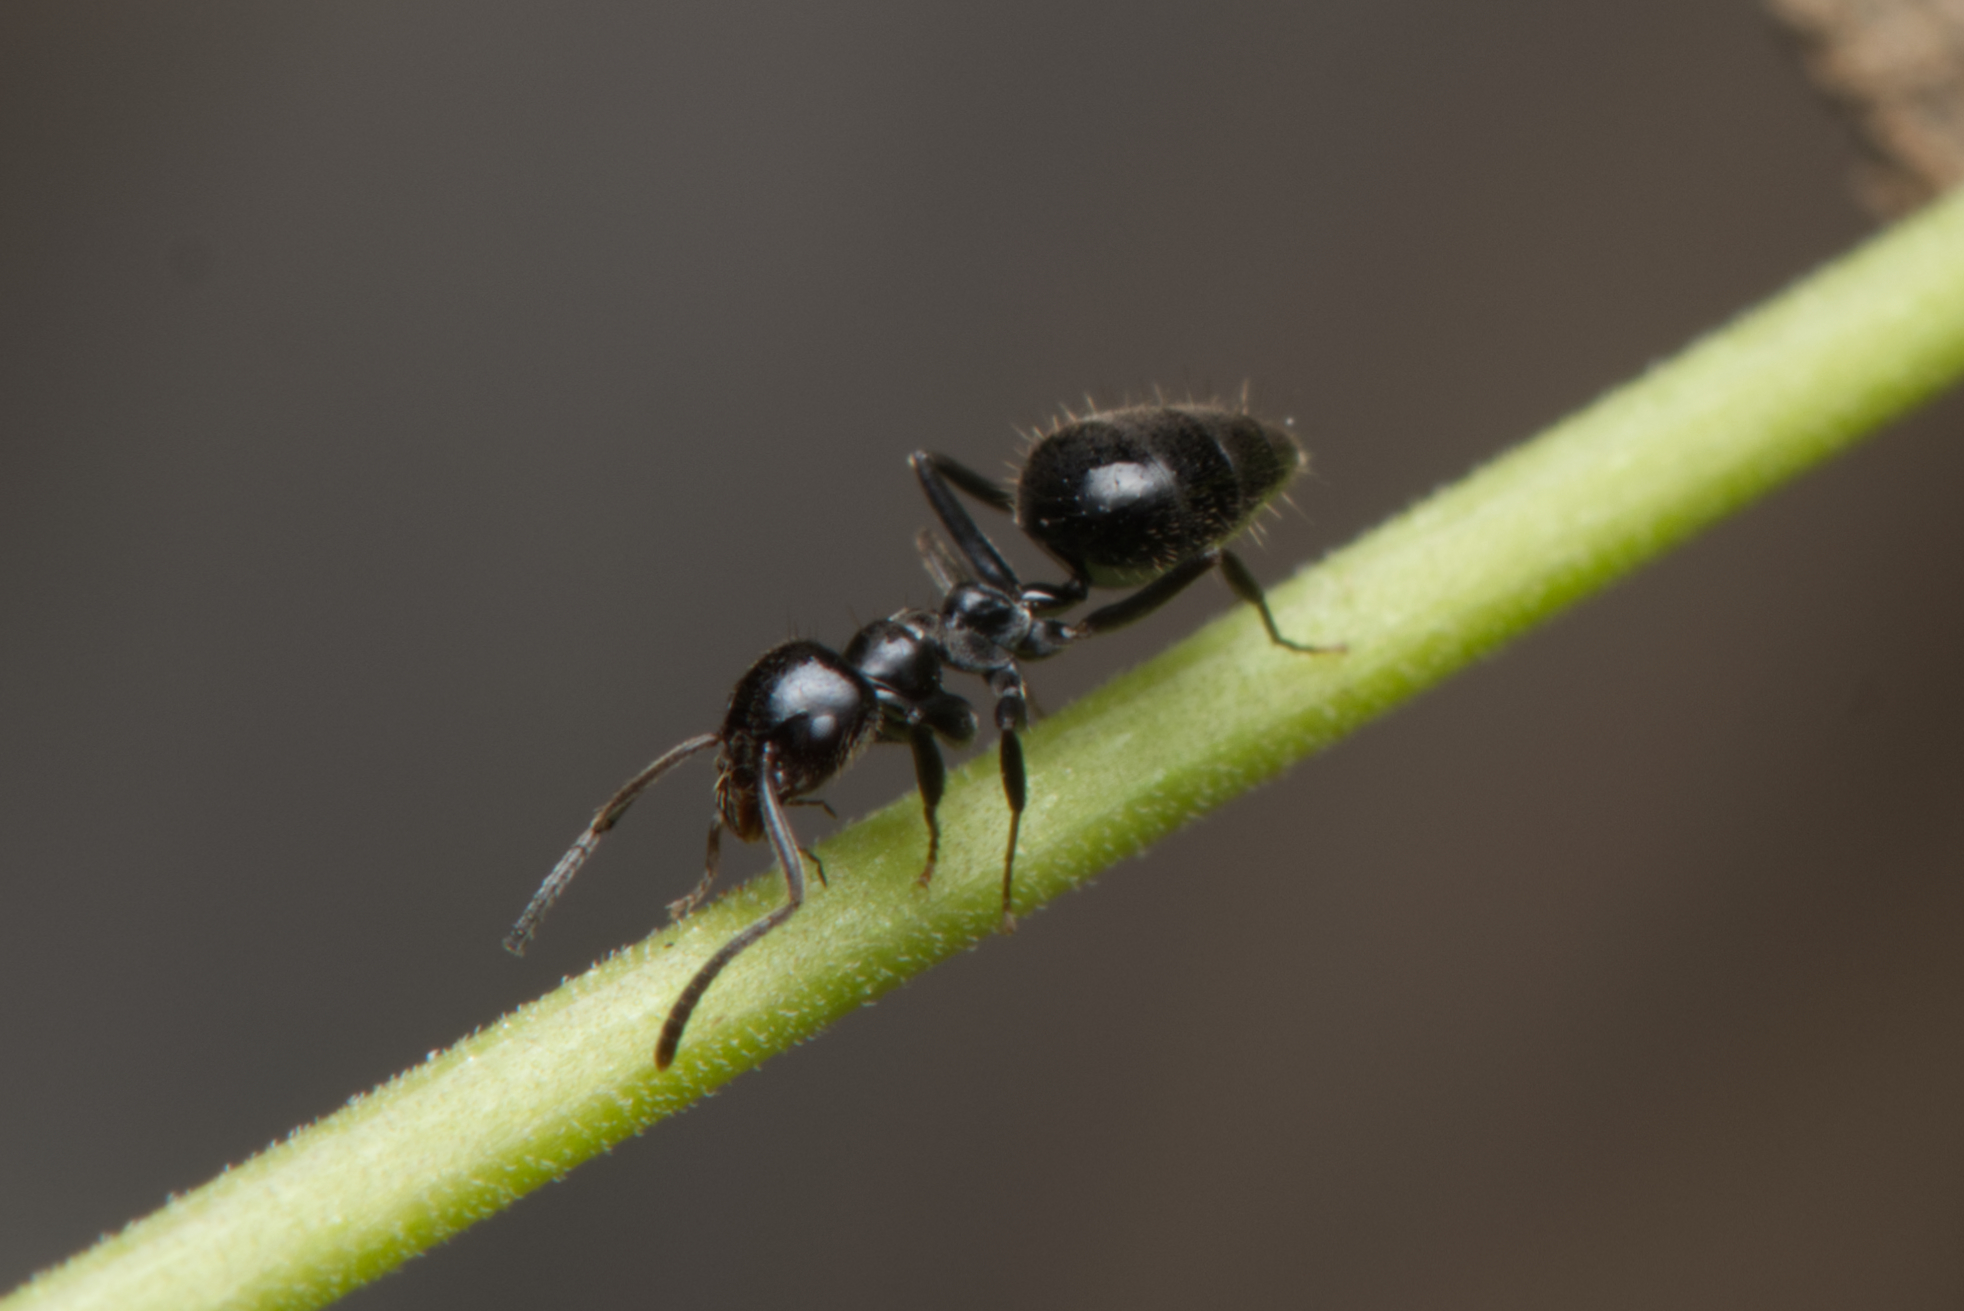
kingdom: Animalia
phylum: Arthropoda
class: Insecta
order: Hymenoptera
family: Formicidae
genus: Technomyrmex
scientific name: Technomyrmex sophiae
